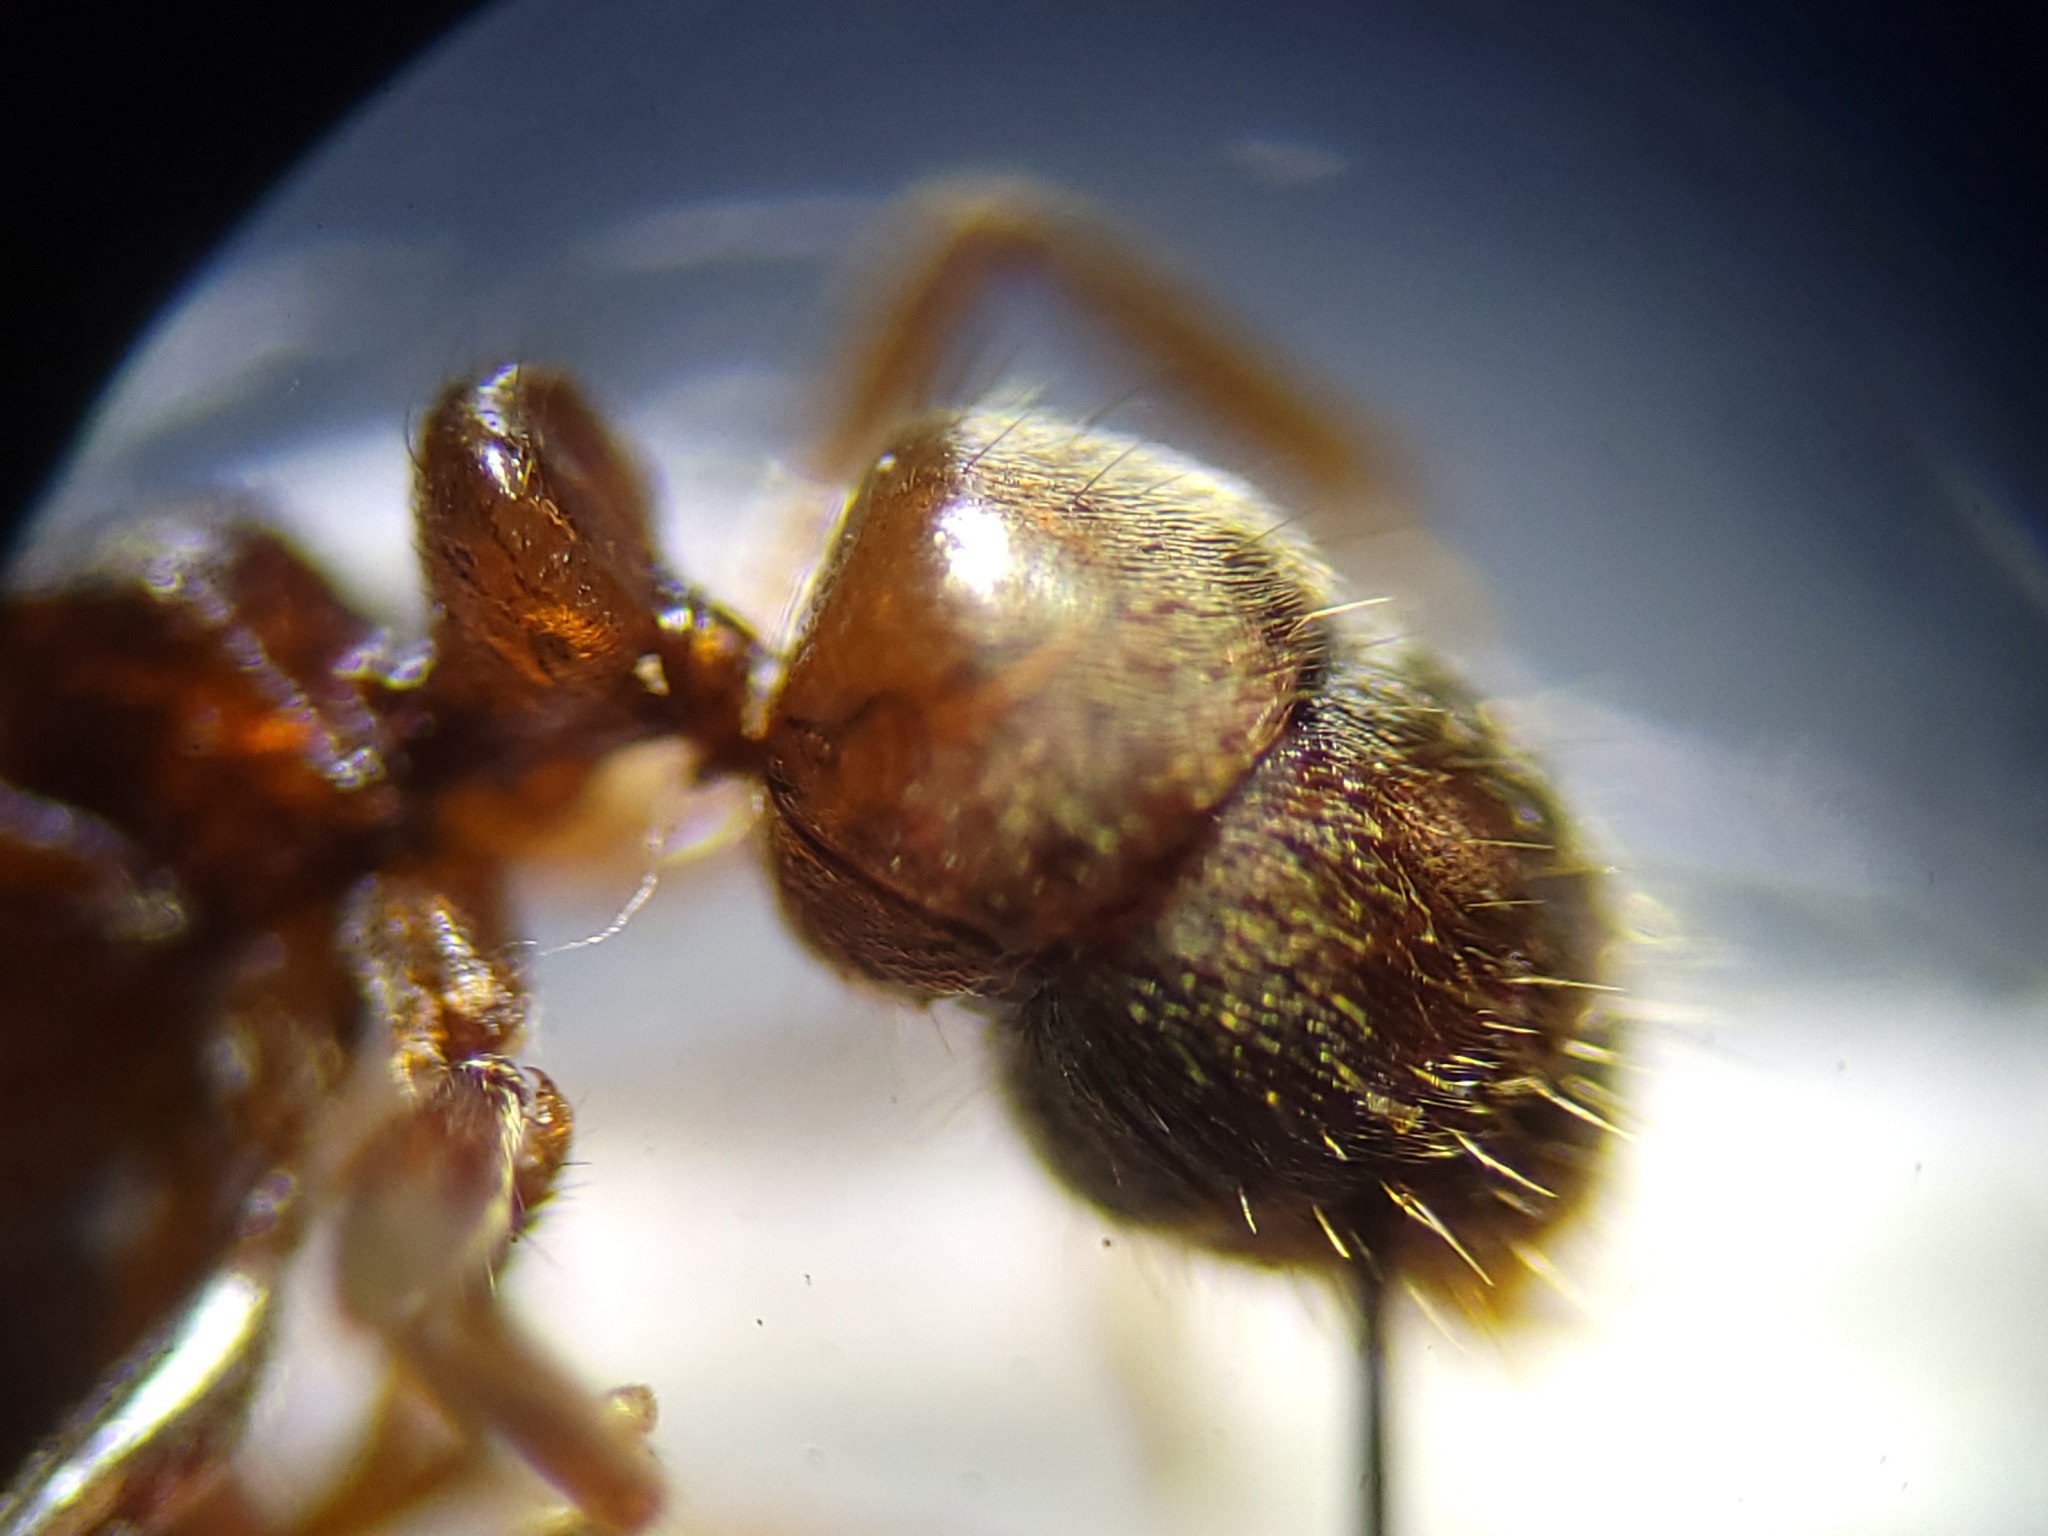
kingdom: Animalia
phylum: Arthropoda
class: Insecta
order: Hymenoptera
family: Formicidae
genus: Pachycondyla
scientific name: Pachycondyla stigma
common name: Pantropical panther ant
